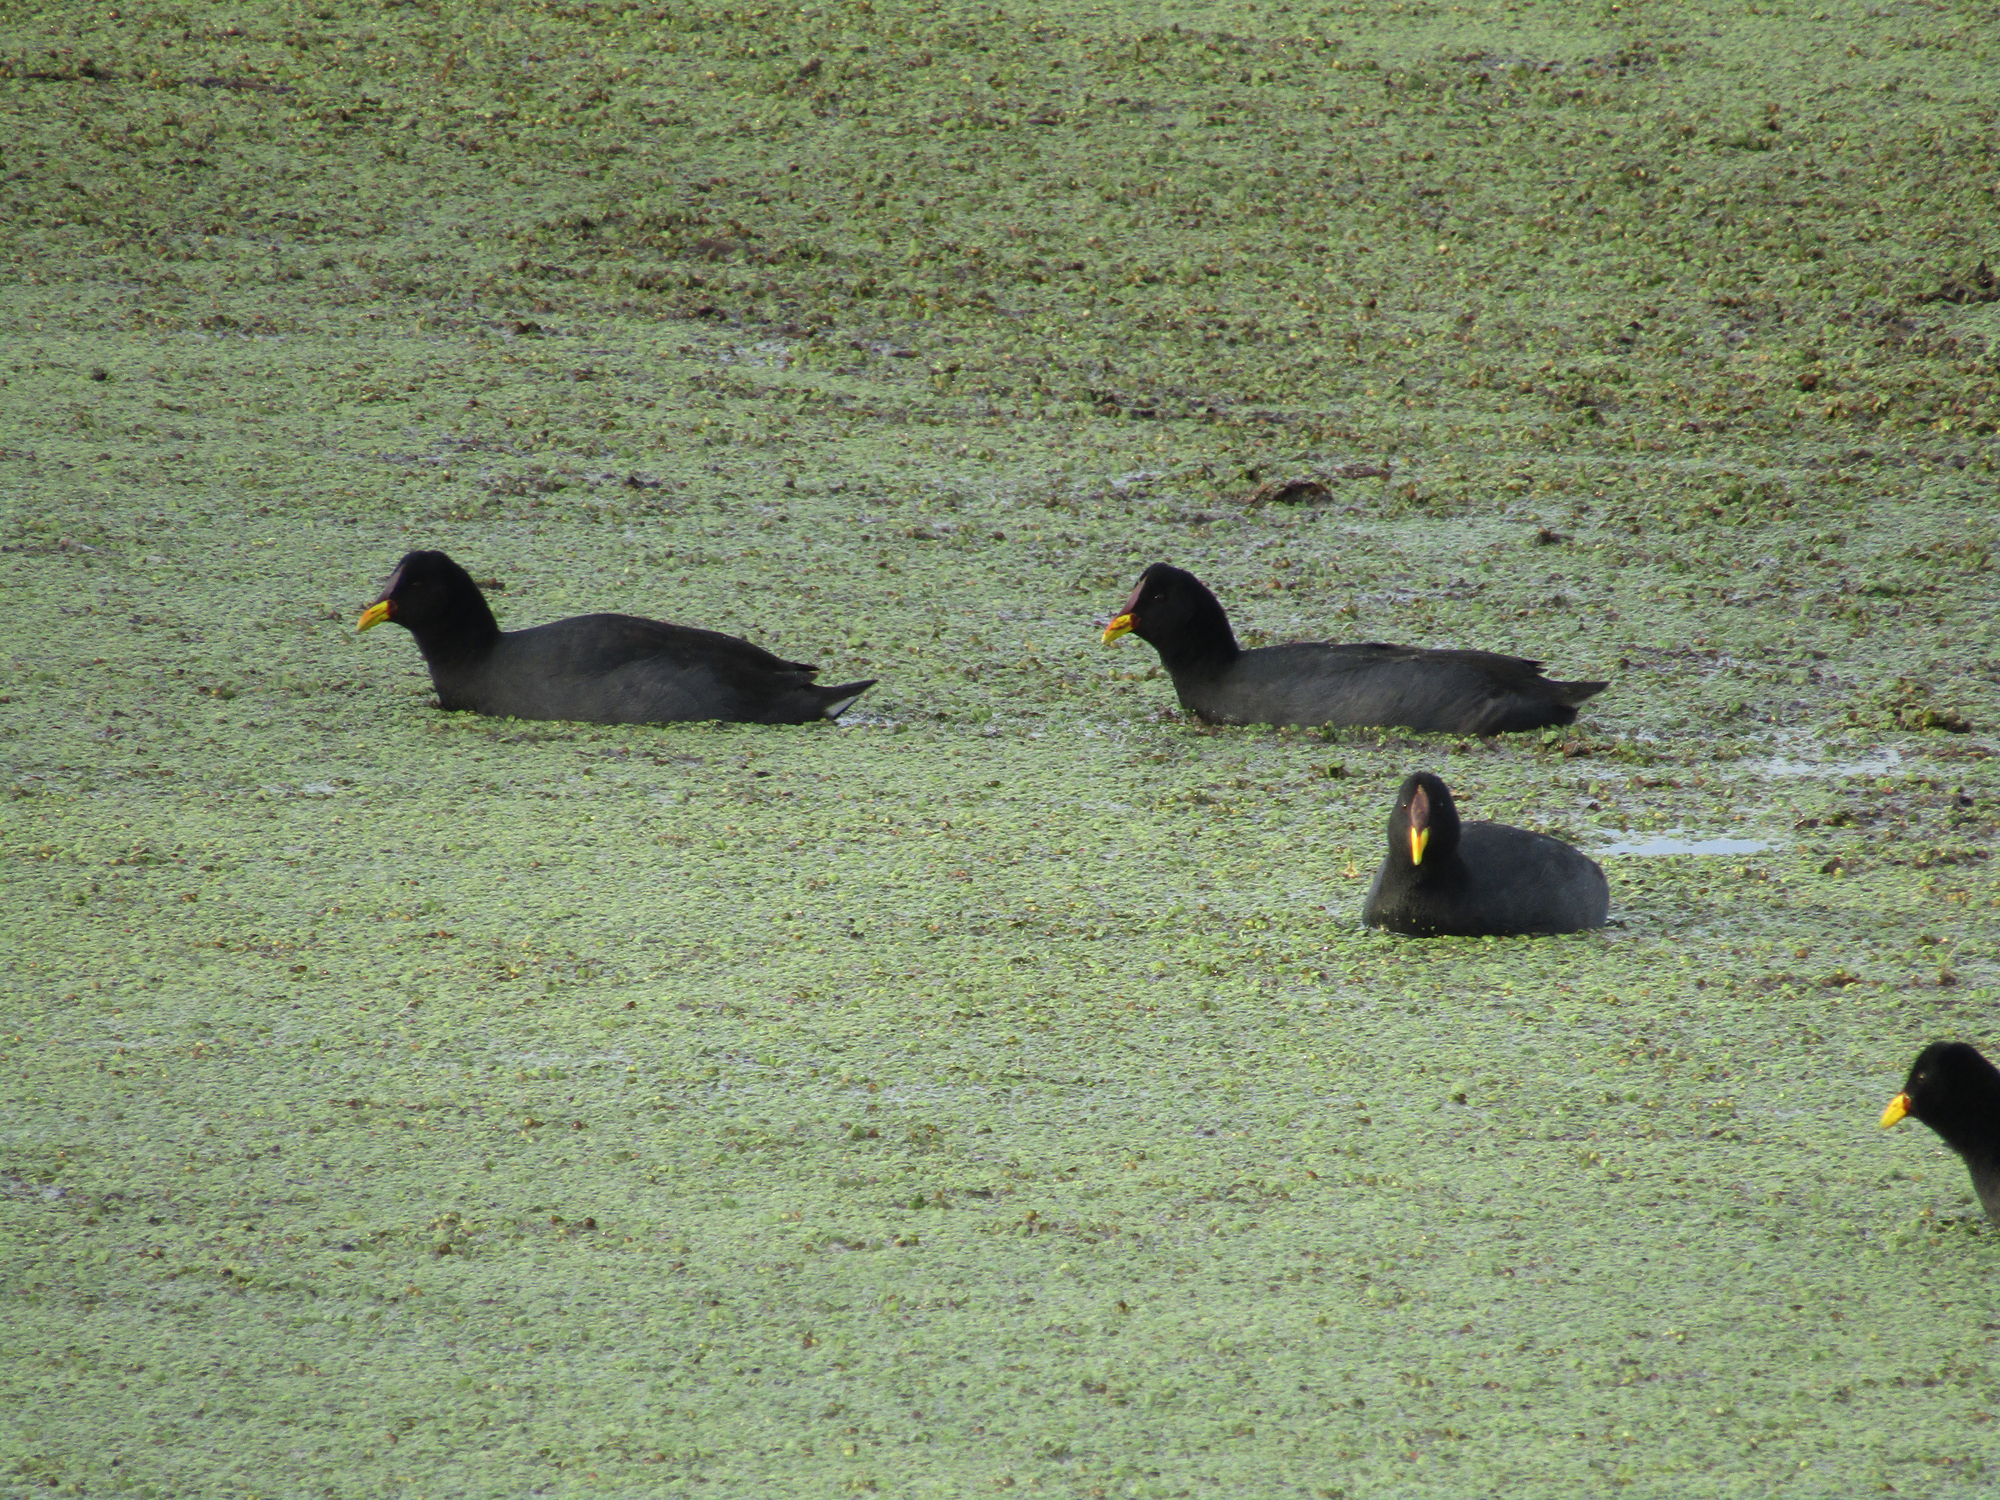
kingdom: Animalia
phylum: Chordata
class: Aves
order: Gruiformes
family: Rallidae
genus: Fulica
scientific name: Fulica rufifrons
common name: Red-fronted coot
